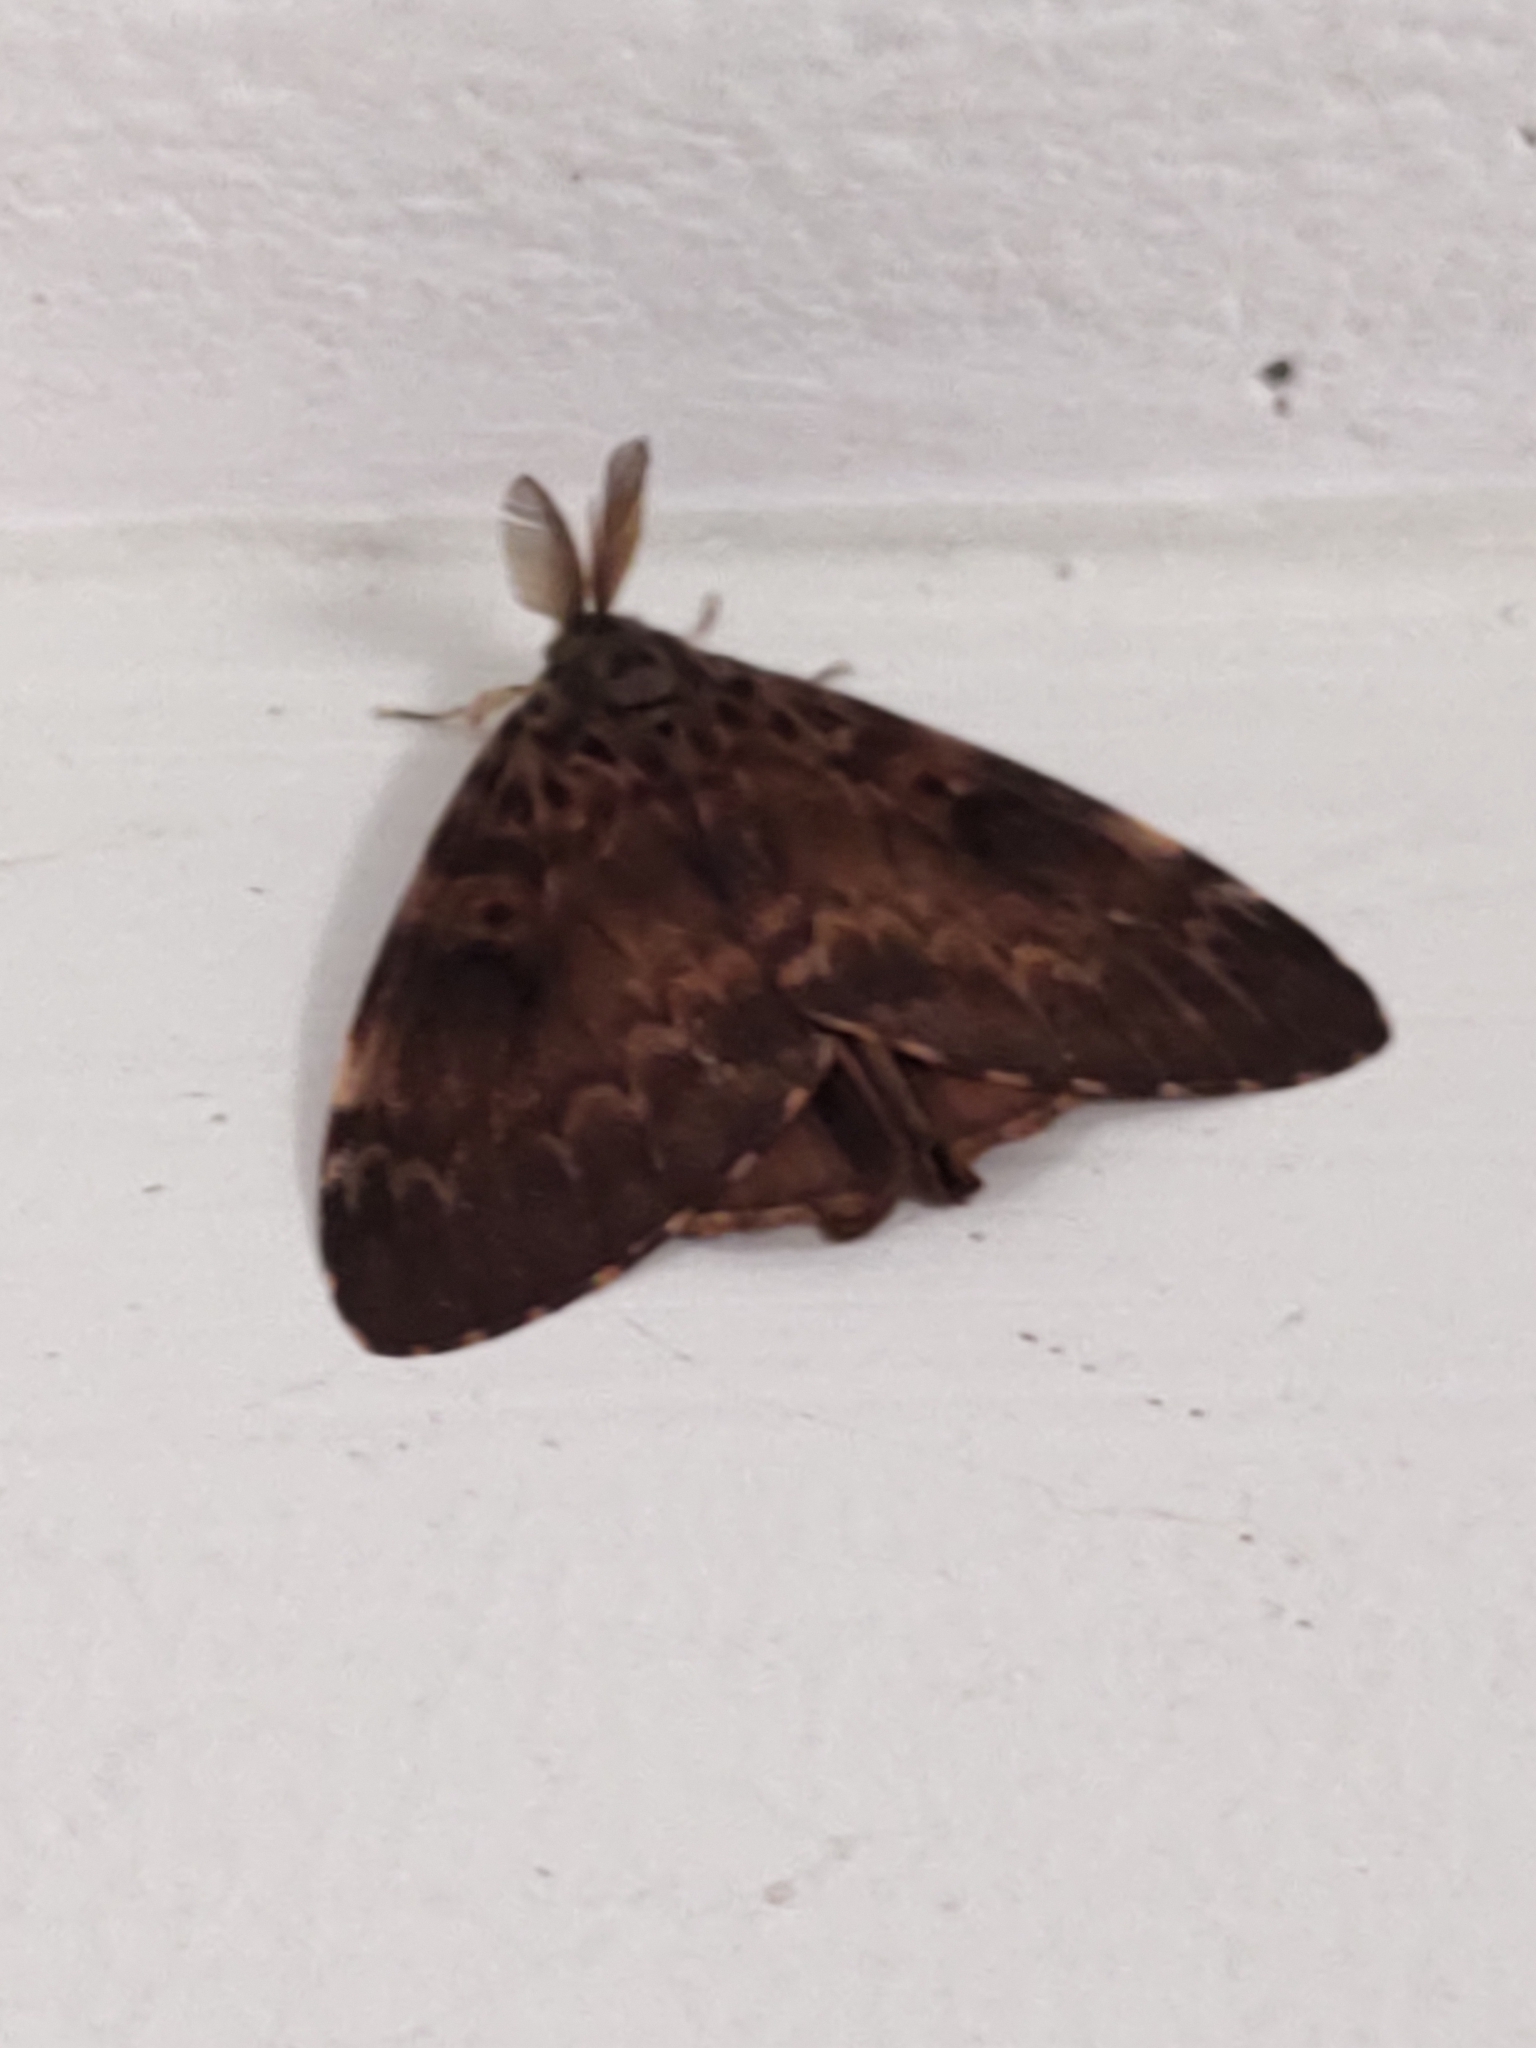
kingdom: Animalia
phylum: Arthropoda
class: Insecta
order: Lepidoptera
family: Erebidae
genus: Lymantria
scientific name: Lymantria ampla
